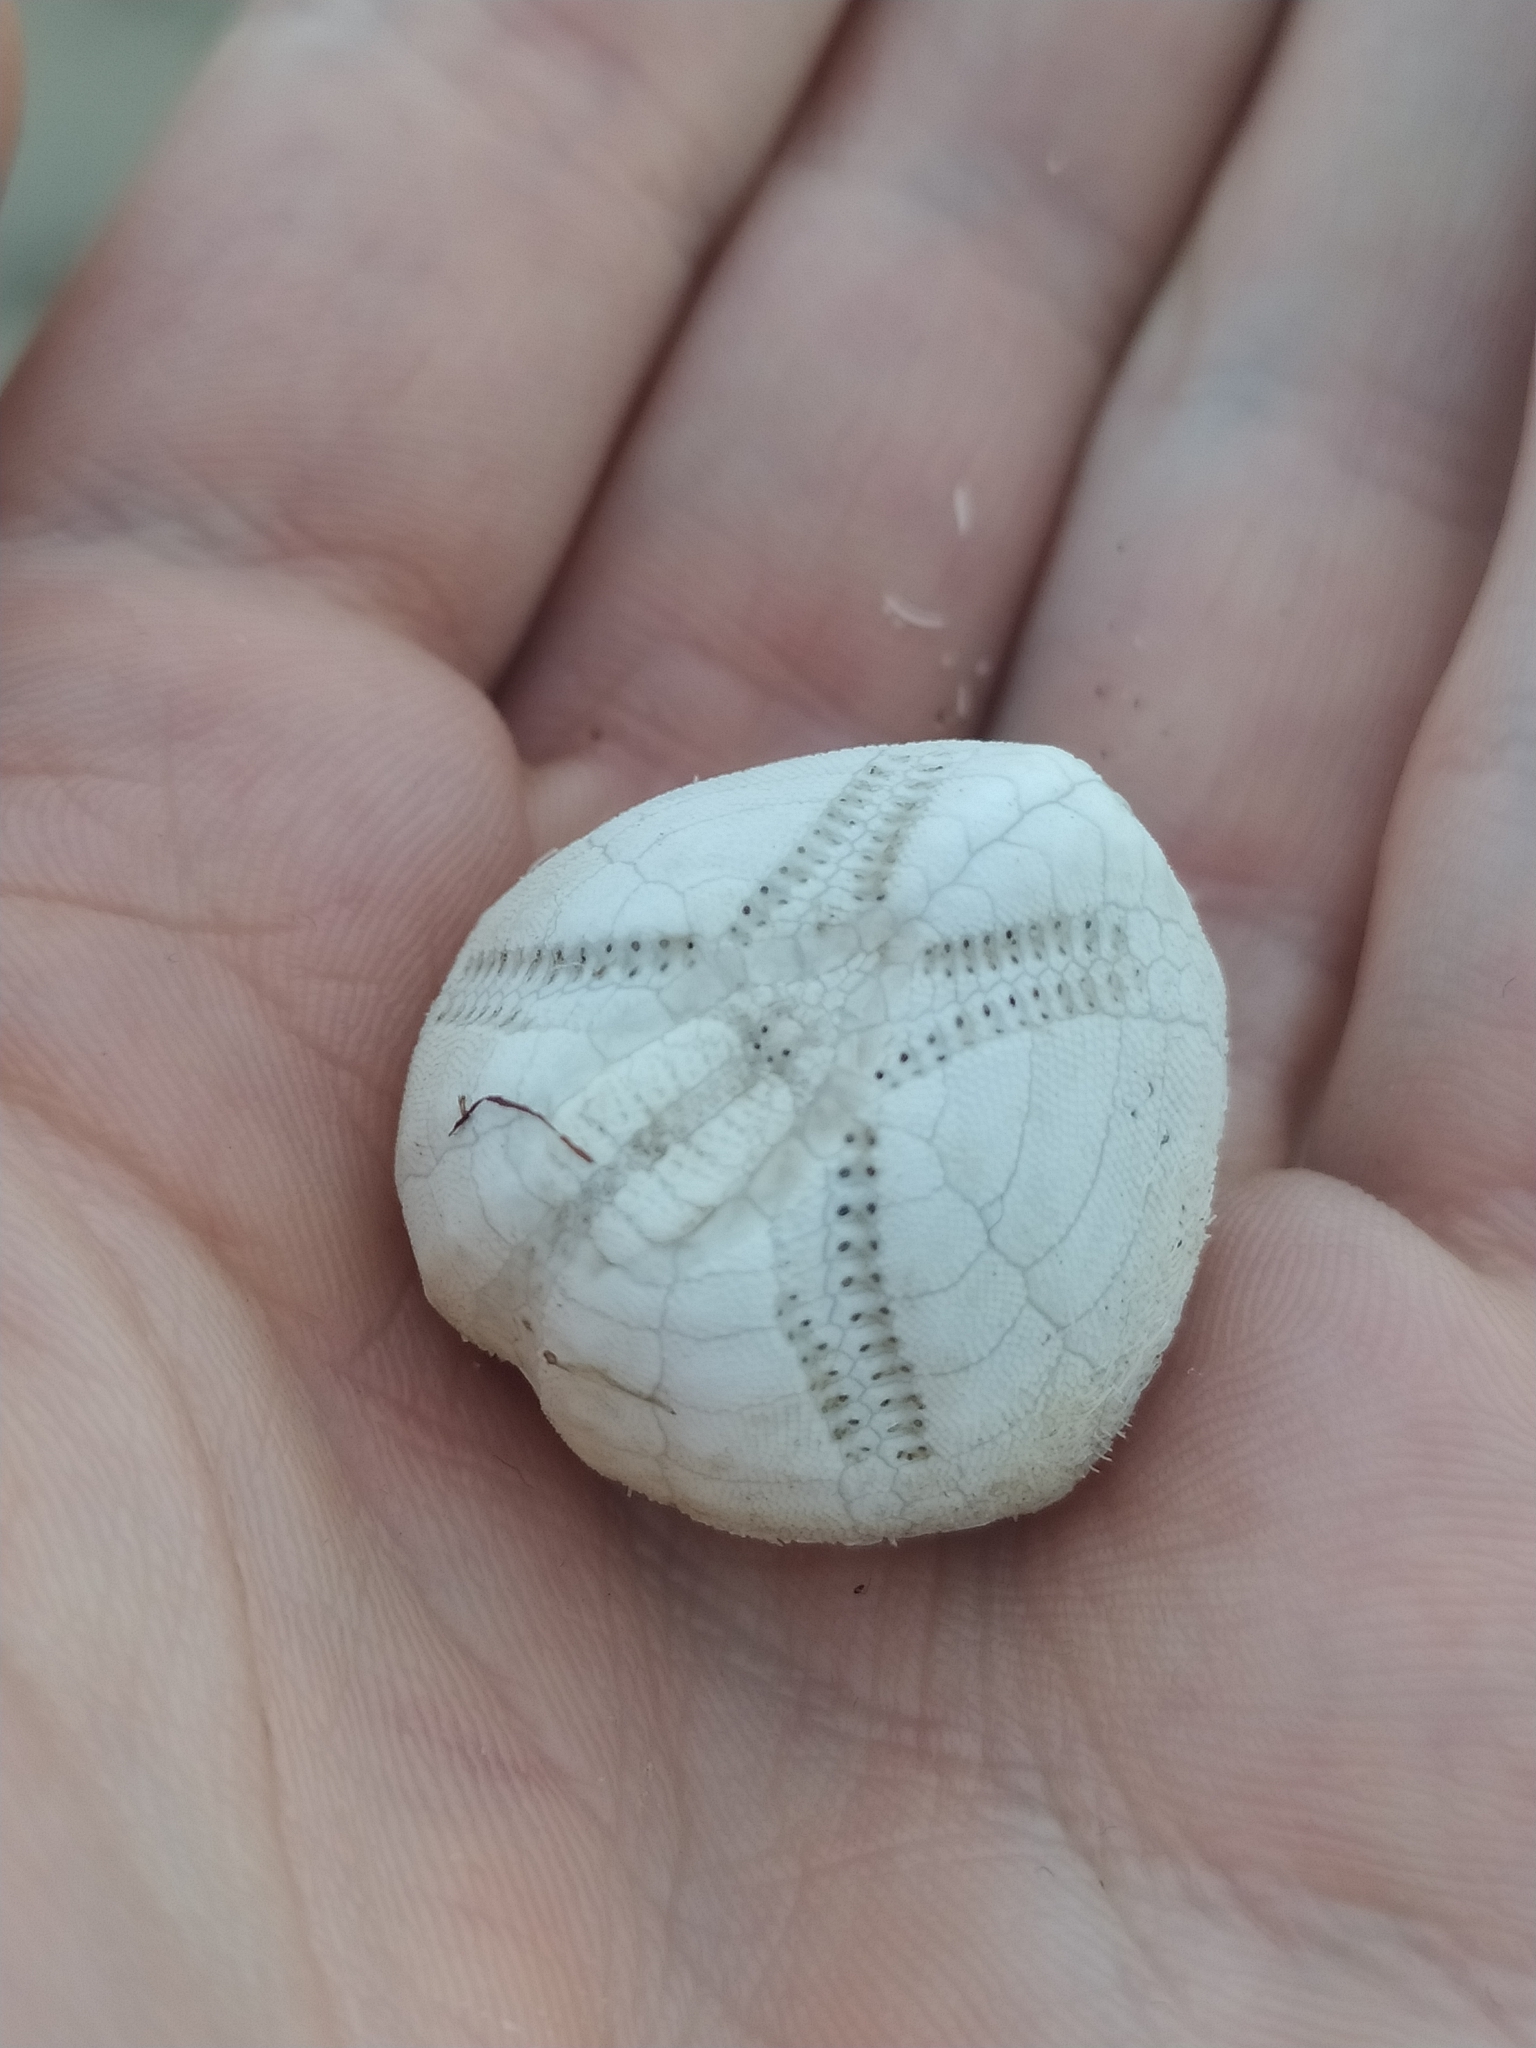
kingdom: Animalia
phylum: Echinodermata
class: Echinoidea
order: Spatangoida
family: Loveniidae
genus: Echinocardium
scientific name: Echinocardium mediterraneum
